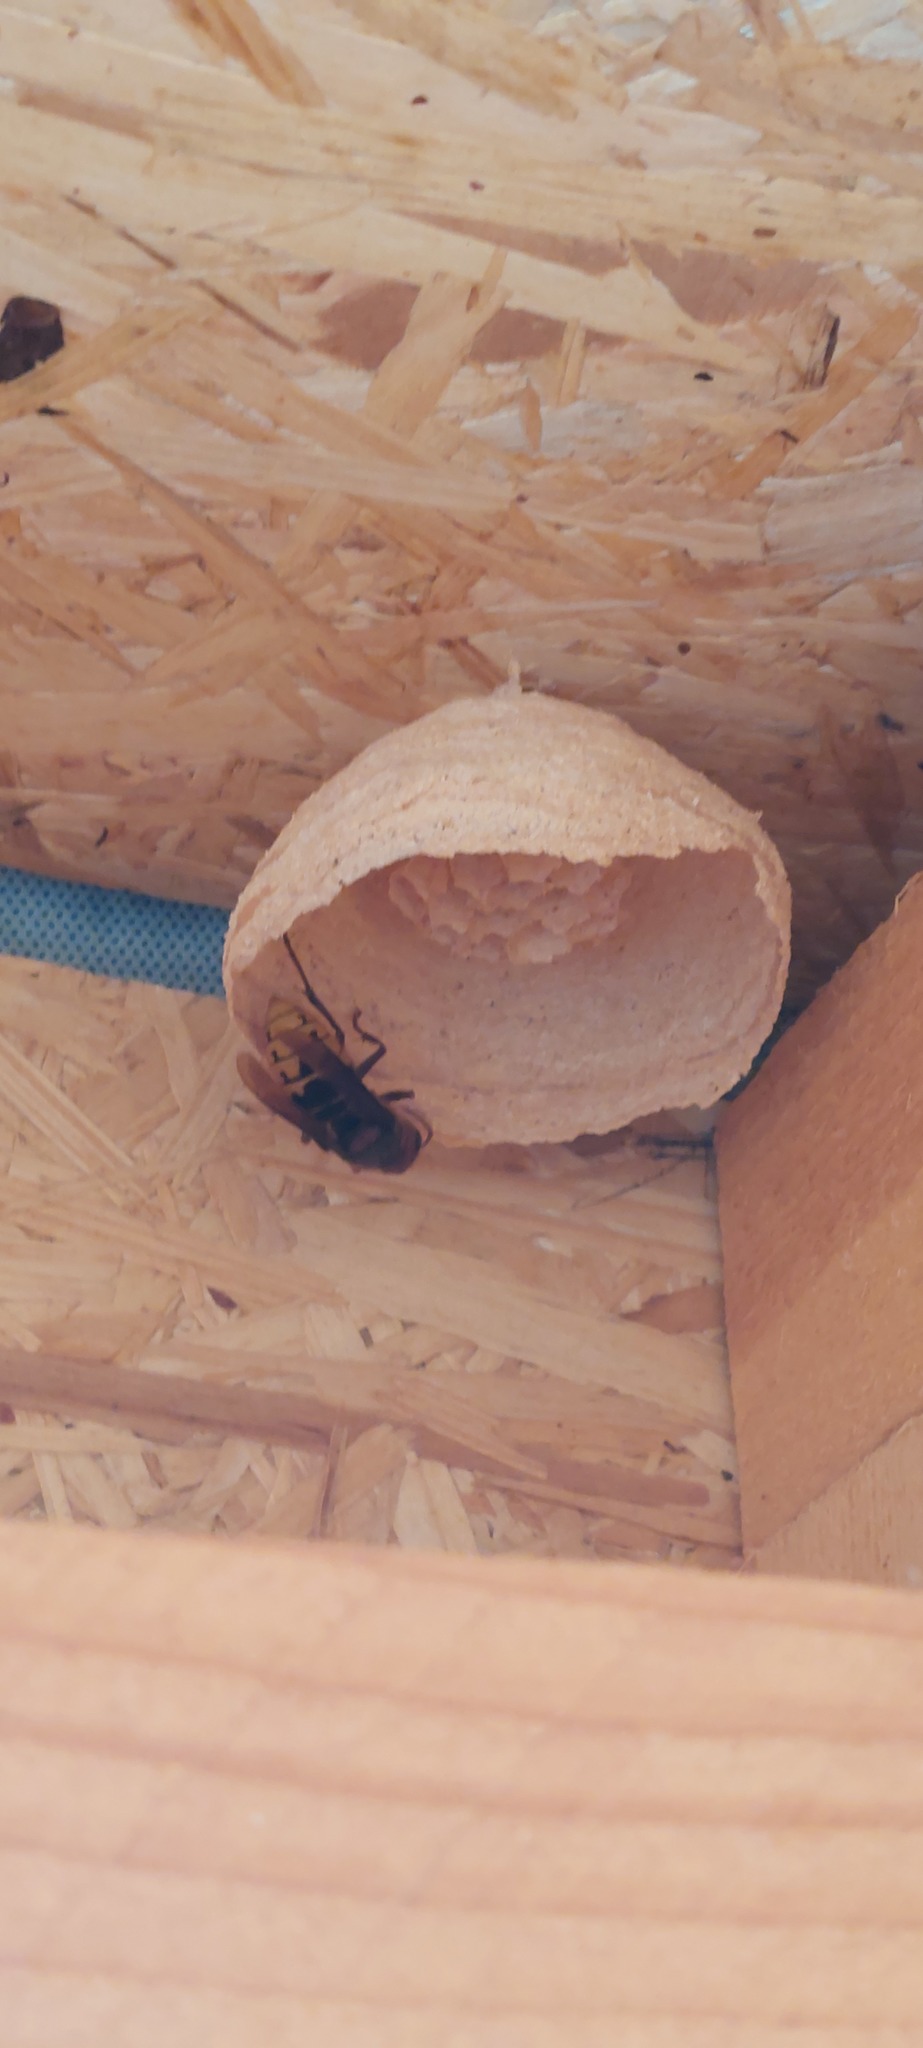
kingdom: Animalia
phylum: Arthropoda
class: Insecta
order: Hymenoptera
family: Vespidae
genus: Vespa
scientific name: Vespa crabro
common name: Hornet
